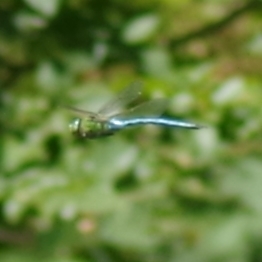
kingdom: Animalia
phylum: Arthropoda
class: Insecta
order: Odonata
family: Aeshnidae
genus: Anax
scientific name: Anax imperator
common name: Emperor dragonfly
